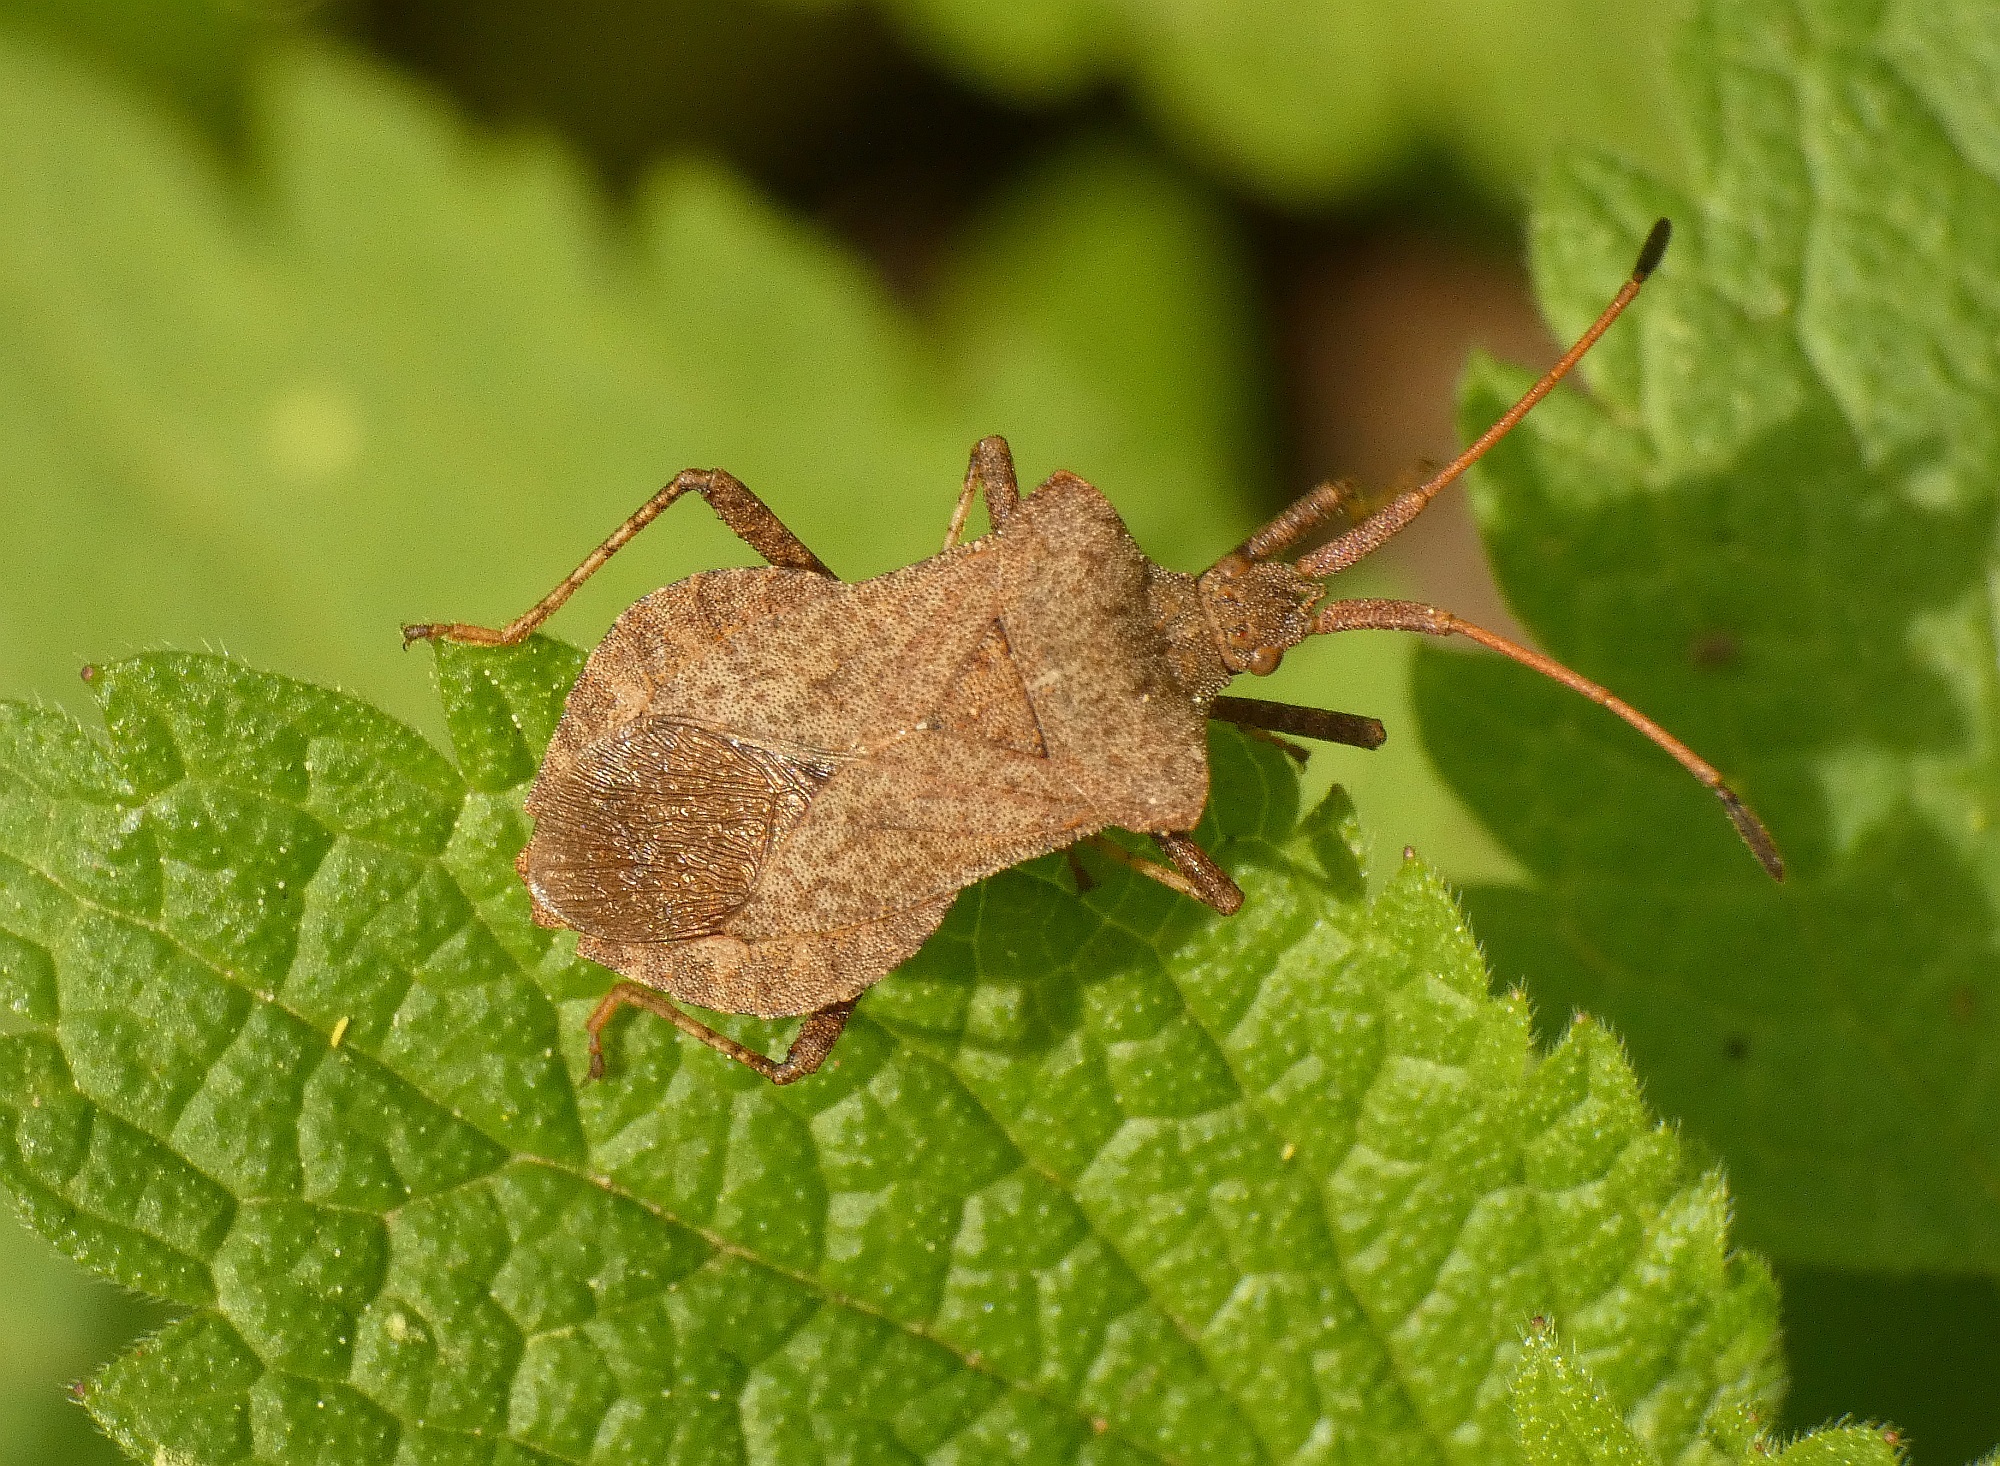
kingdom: Animalia
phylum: Arthropoda
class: Insecta
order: Hemiptera
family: Coreidae
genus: Coreus
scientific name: Coreus marginatus
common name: Dock bug
